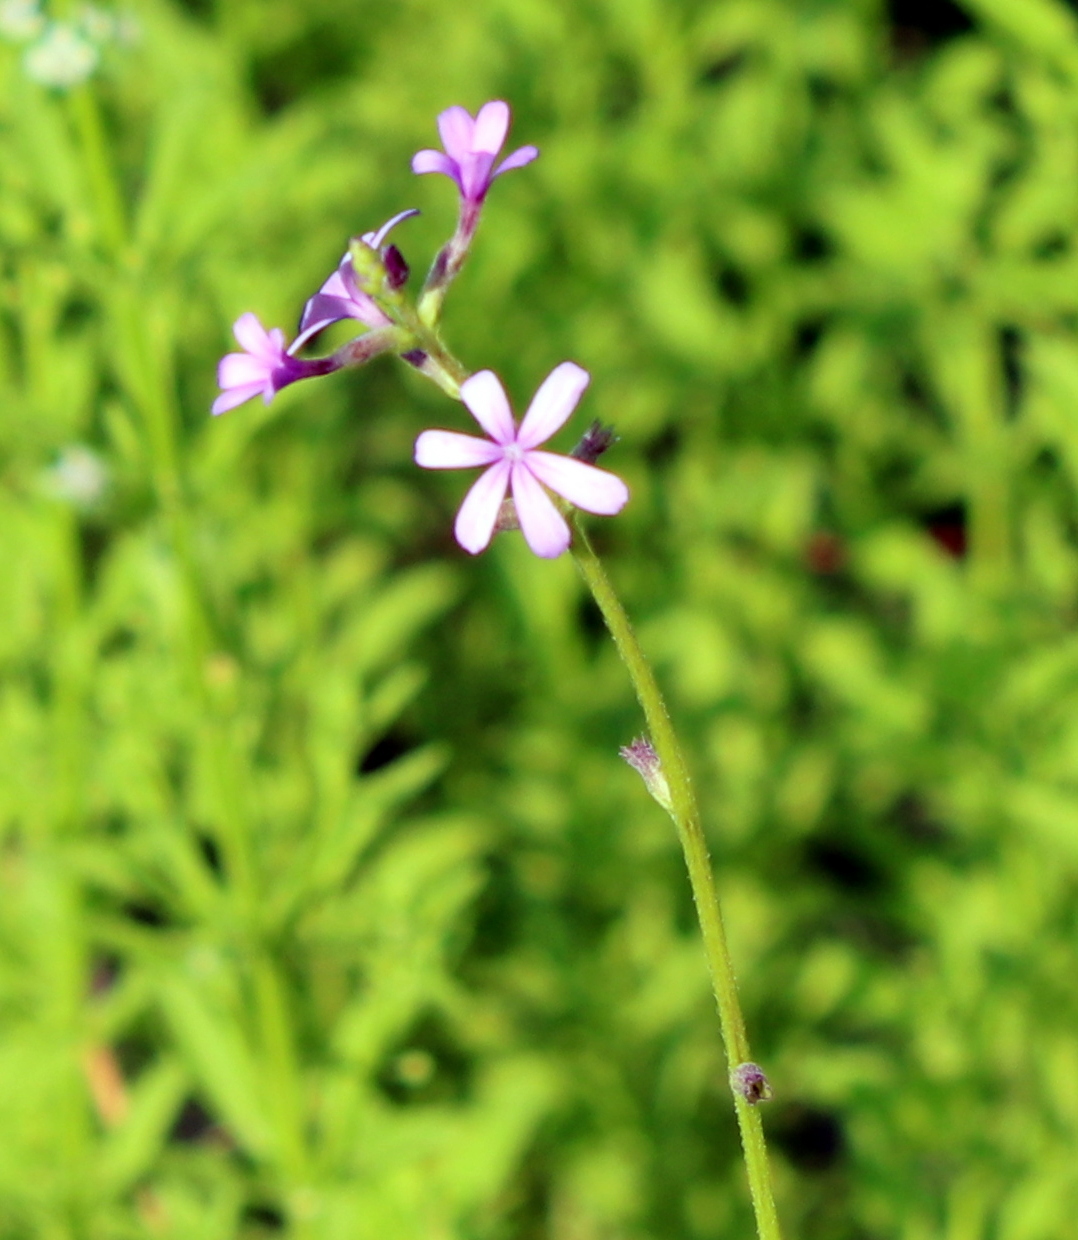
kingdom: Plantae
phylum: Tracheophyta
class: Magnoliopsida
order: Lamiales
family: Orobanchaceae
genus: Buchnera
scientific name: Buchnera floridana
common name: Florida bluehearts
